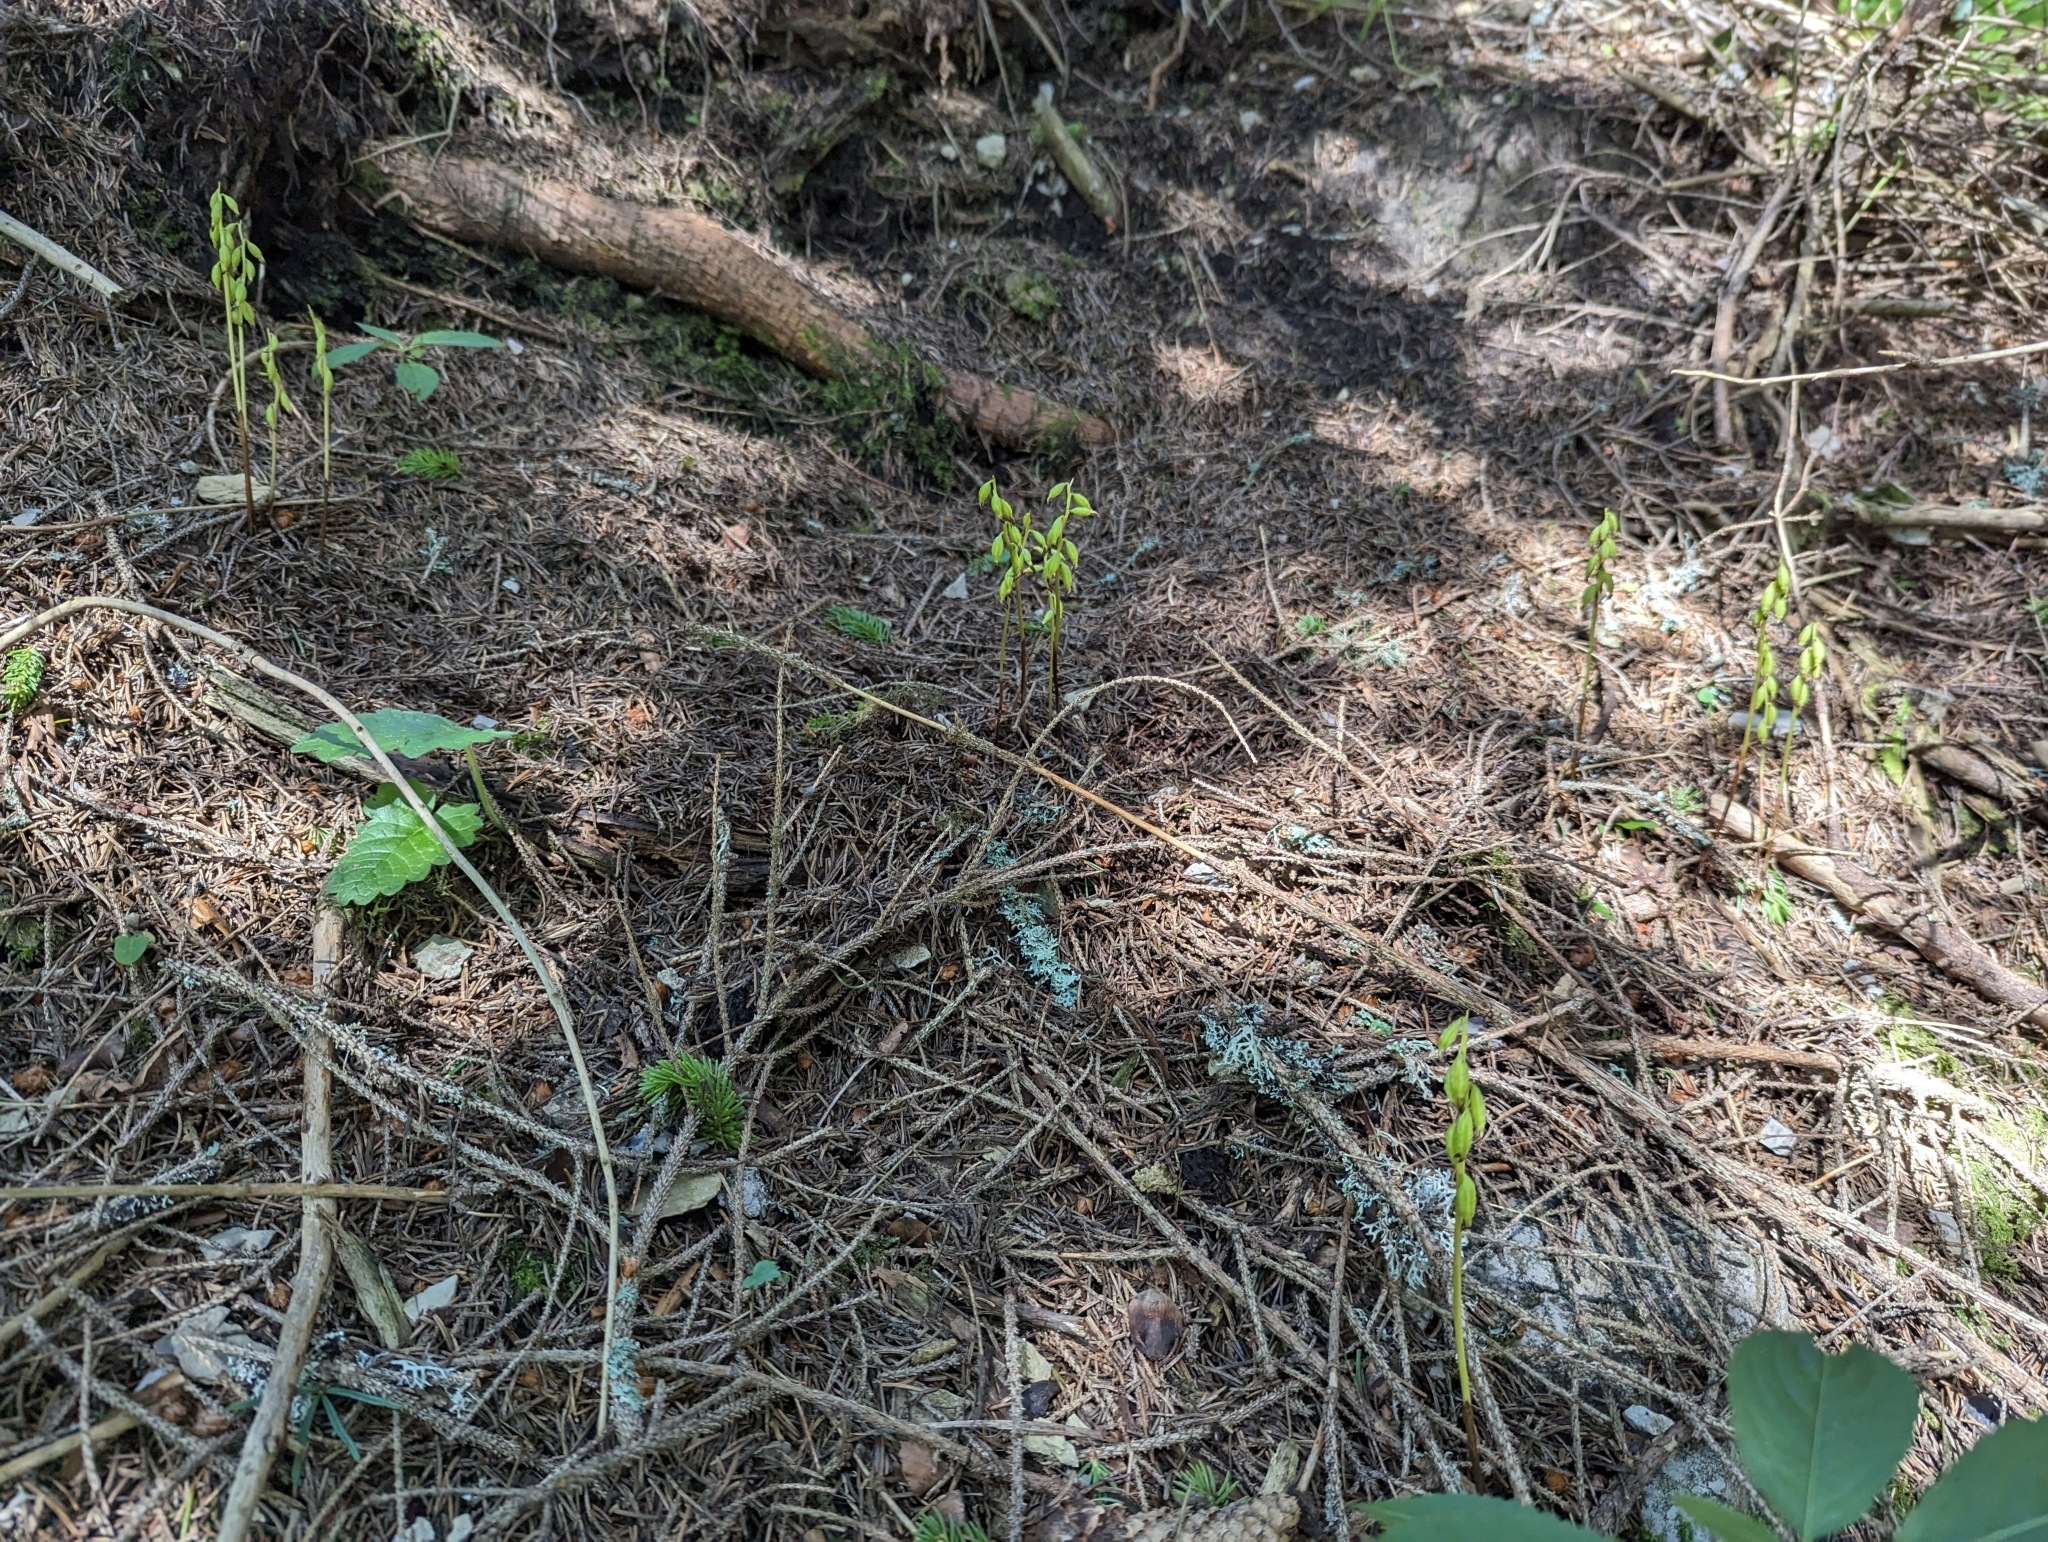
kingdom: Plantae
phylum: Tracheophyta
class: Liliopsida
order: Asparagales
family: Orchidaceae
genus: Corallorhiza
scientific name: Corallorhiza trifida
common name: Yellow coralroot
